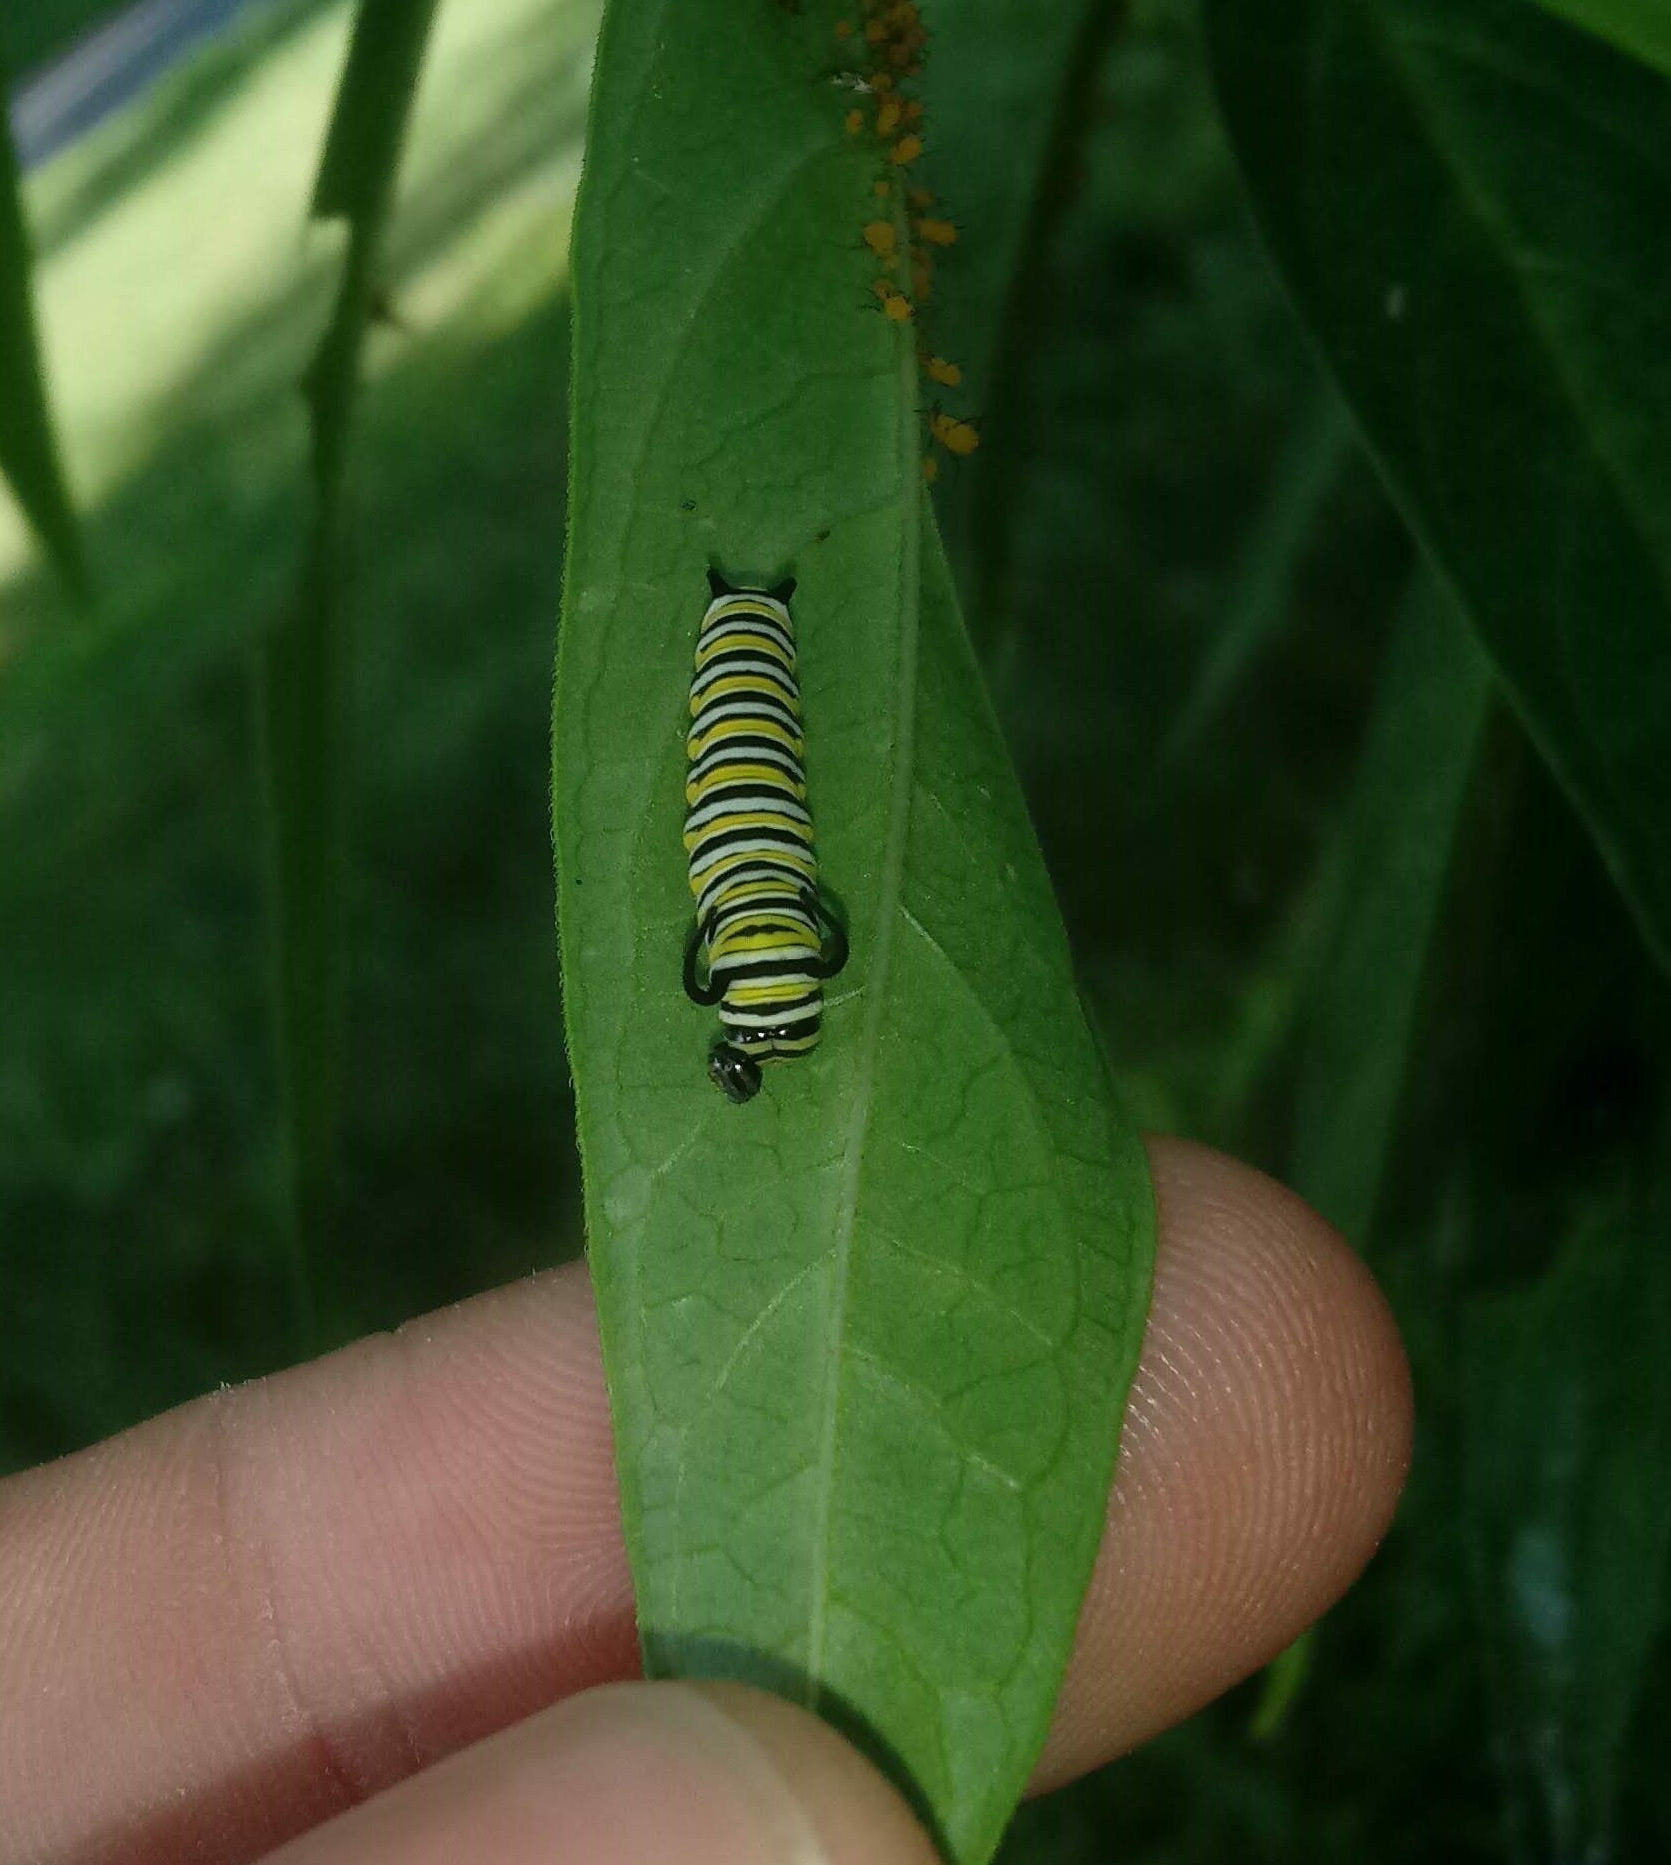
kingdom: Animalia
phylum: Arthropoda
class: Insecta
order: Lepidoptera
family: Nymphalidae
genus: Danaus
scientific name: Danaus plexippus
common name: Monarch
